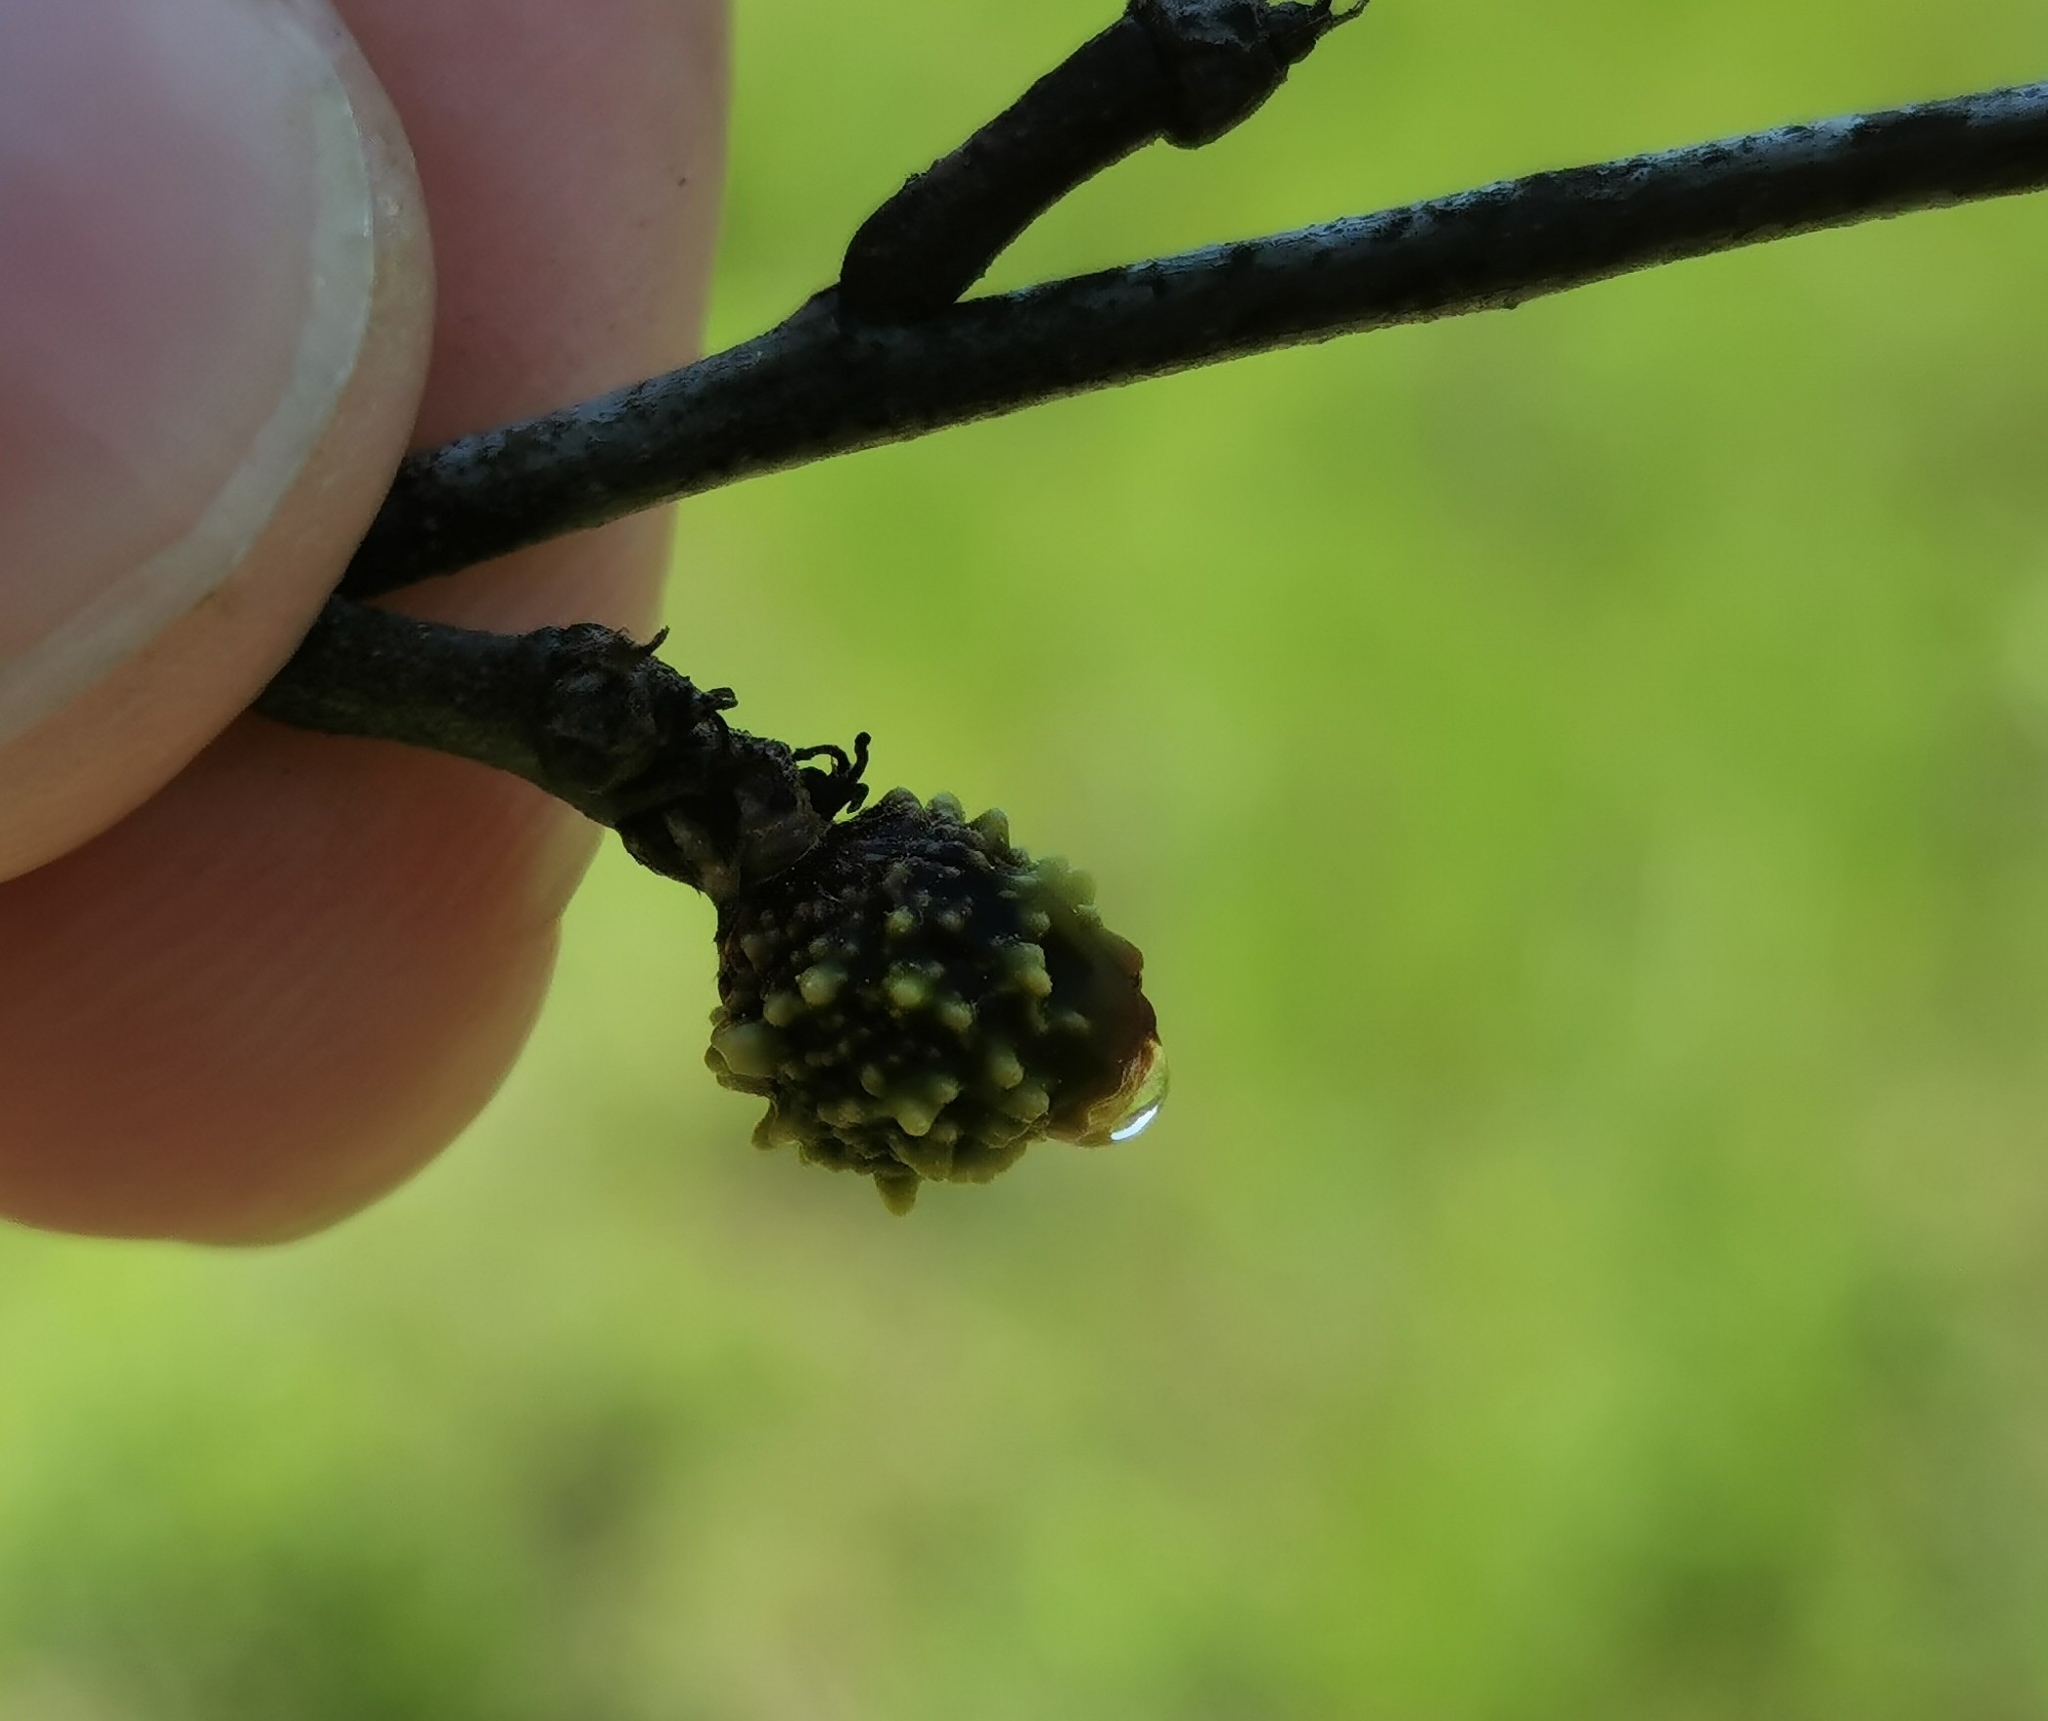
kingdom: Animalia
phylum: Arthropoda
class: Insecta
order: Hymenoptera
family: Cynipidae
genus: Callirhytis
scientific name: Callirhytis
